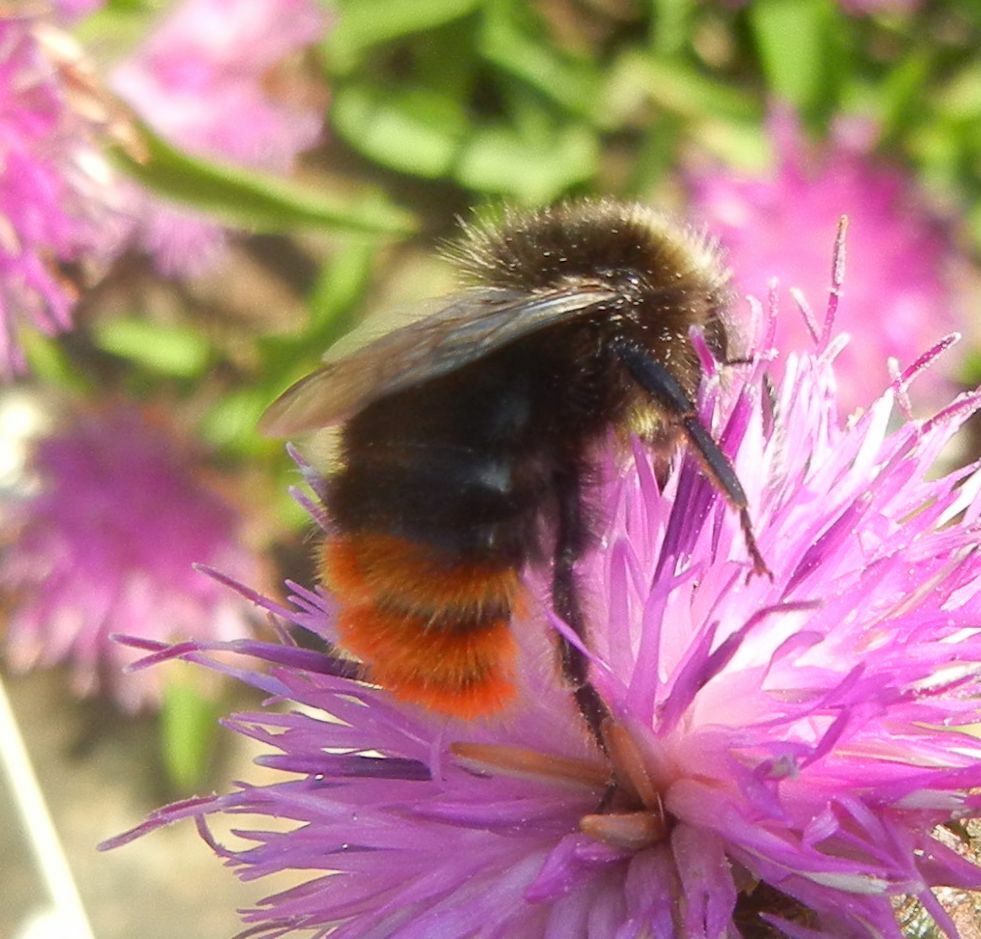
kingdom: Animalia
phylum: Arthropoda
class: Insecta
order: Hymenoptera
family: Apidae
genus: Bombus
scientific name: Bombus lapidarius
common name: Large red-tailed humble-bee
